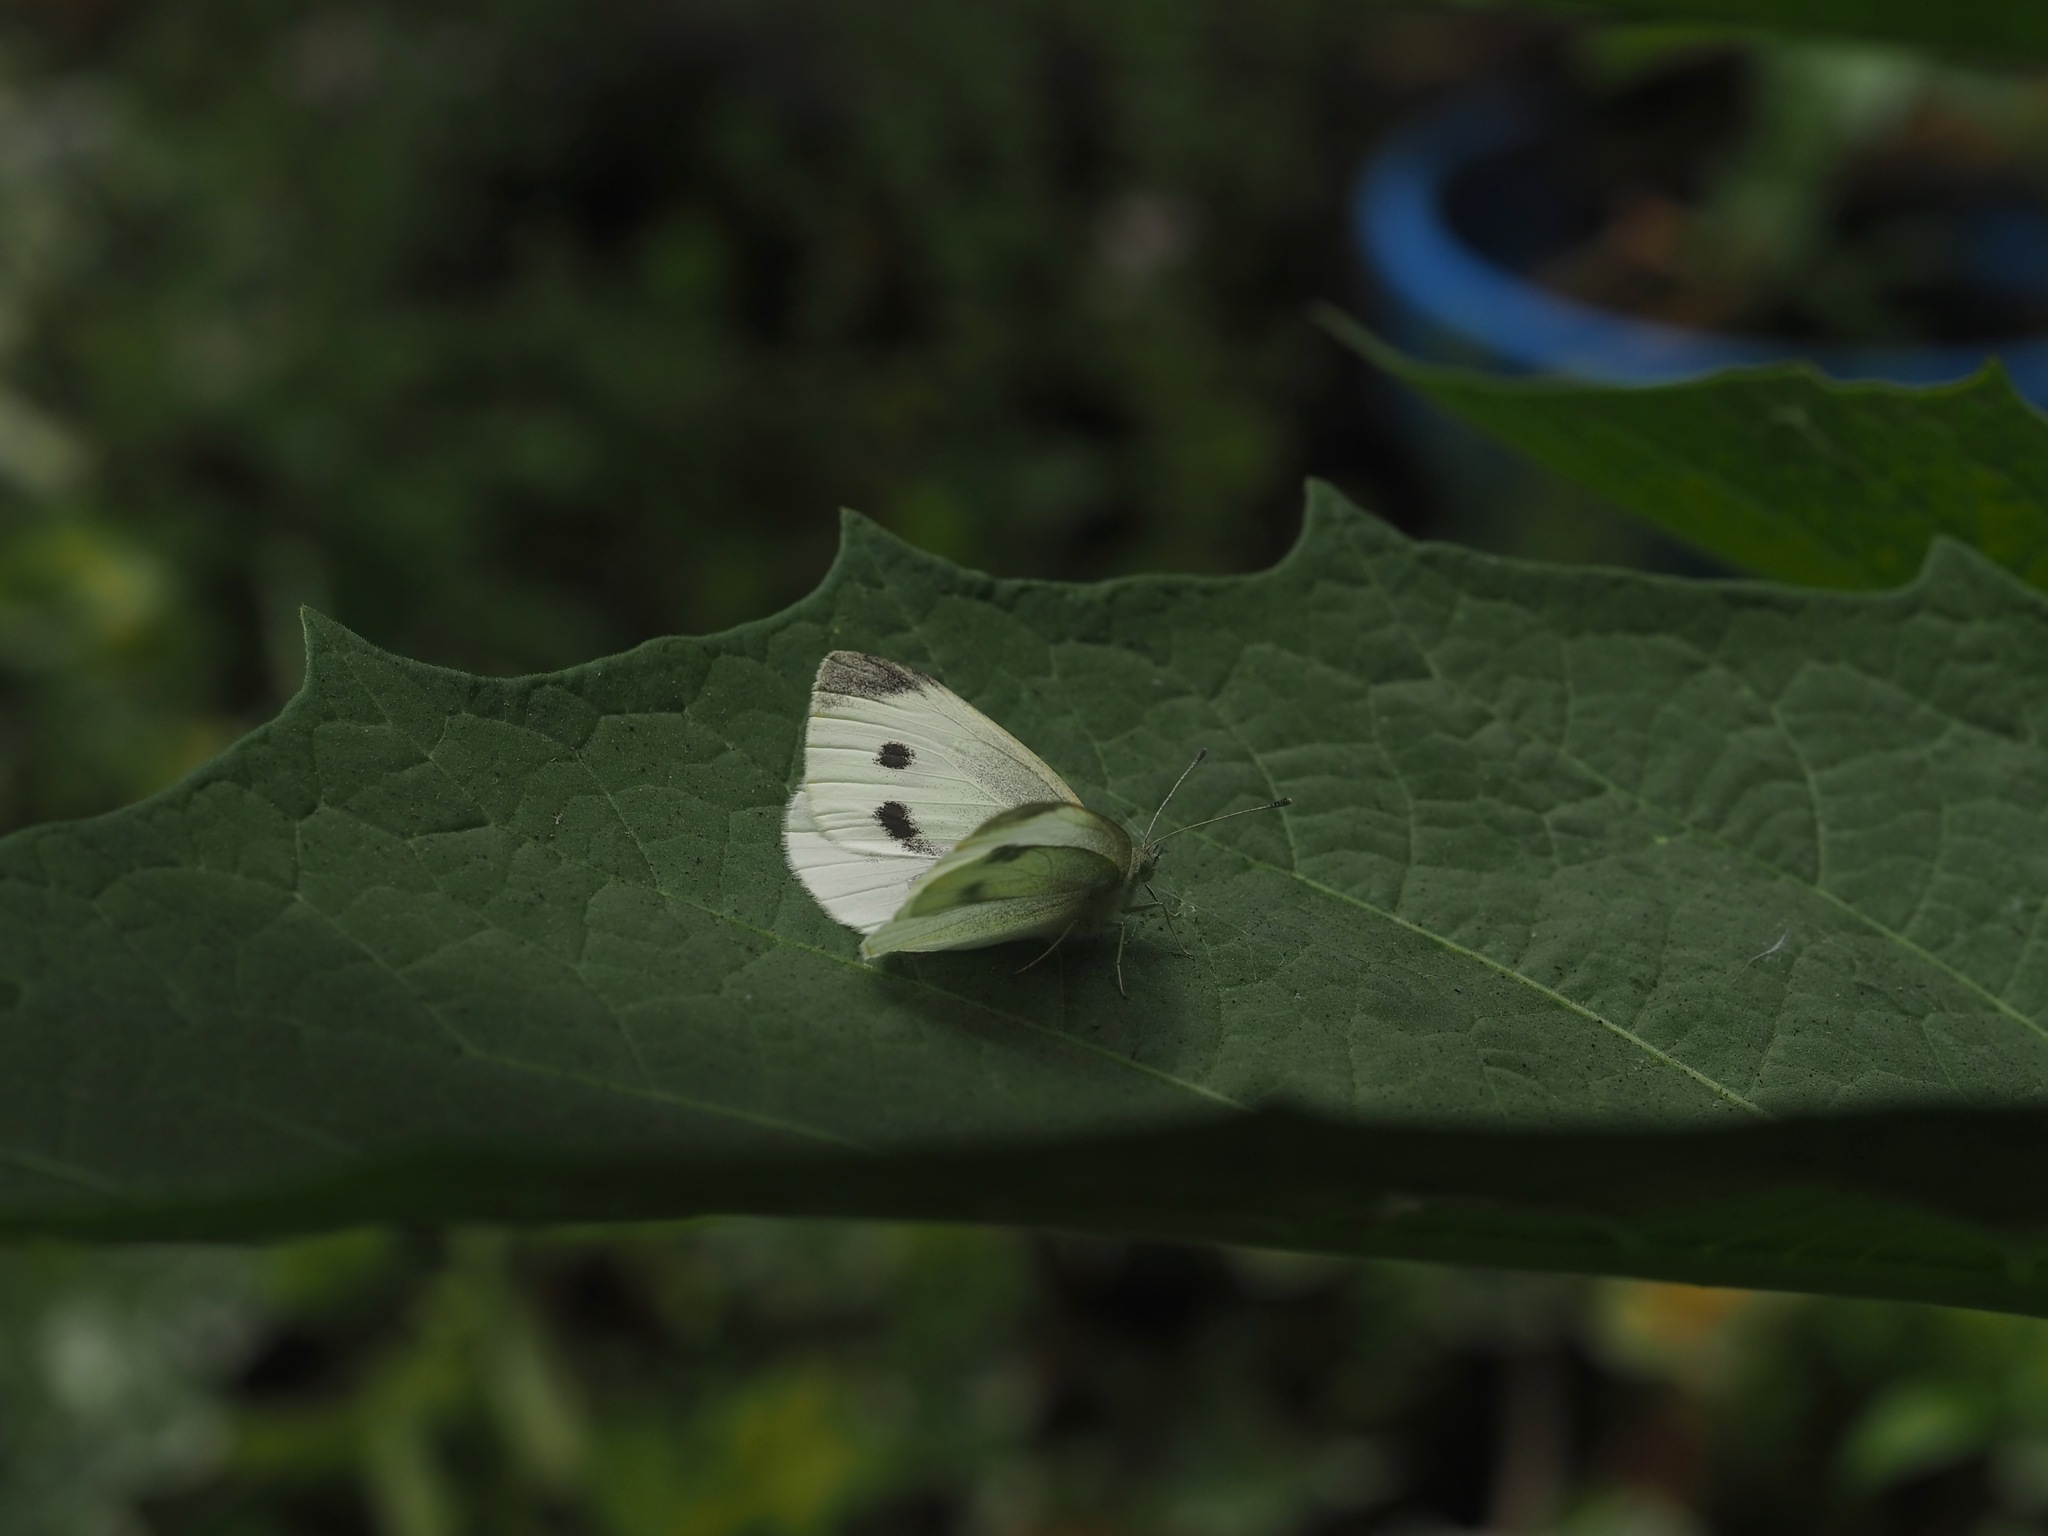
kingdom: Animalia
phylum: Arthropoda
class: Insecta
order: Lepidoptera
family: Pieridae
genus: Pieris
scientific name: Pieris rapae
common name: Small white
